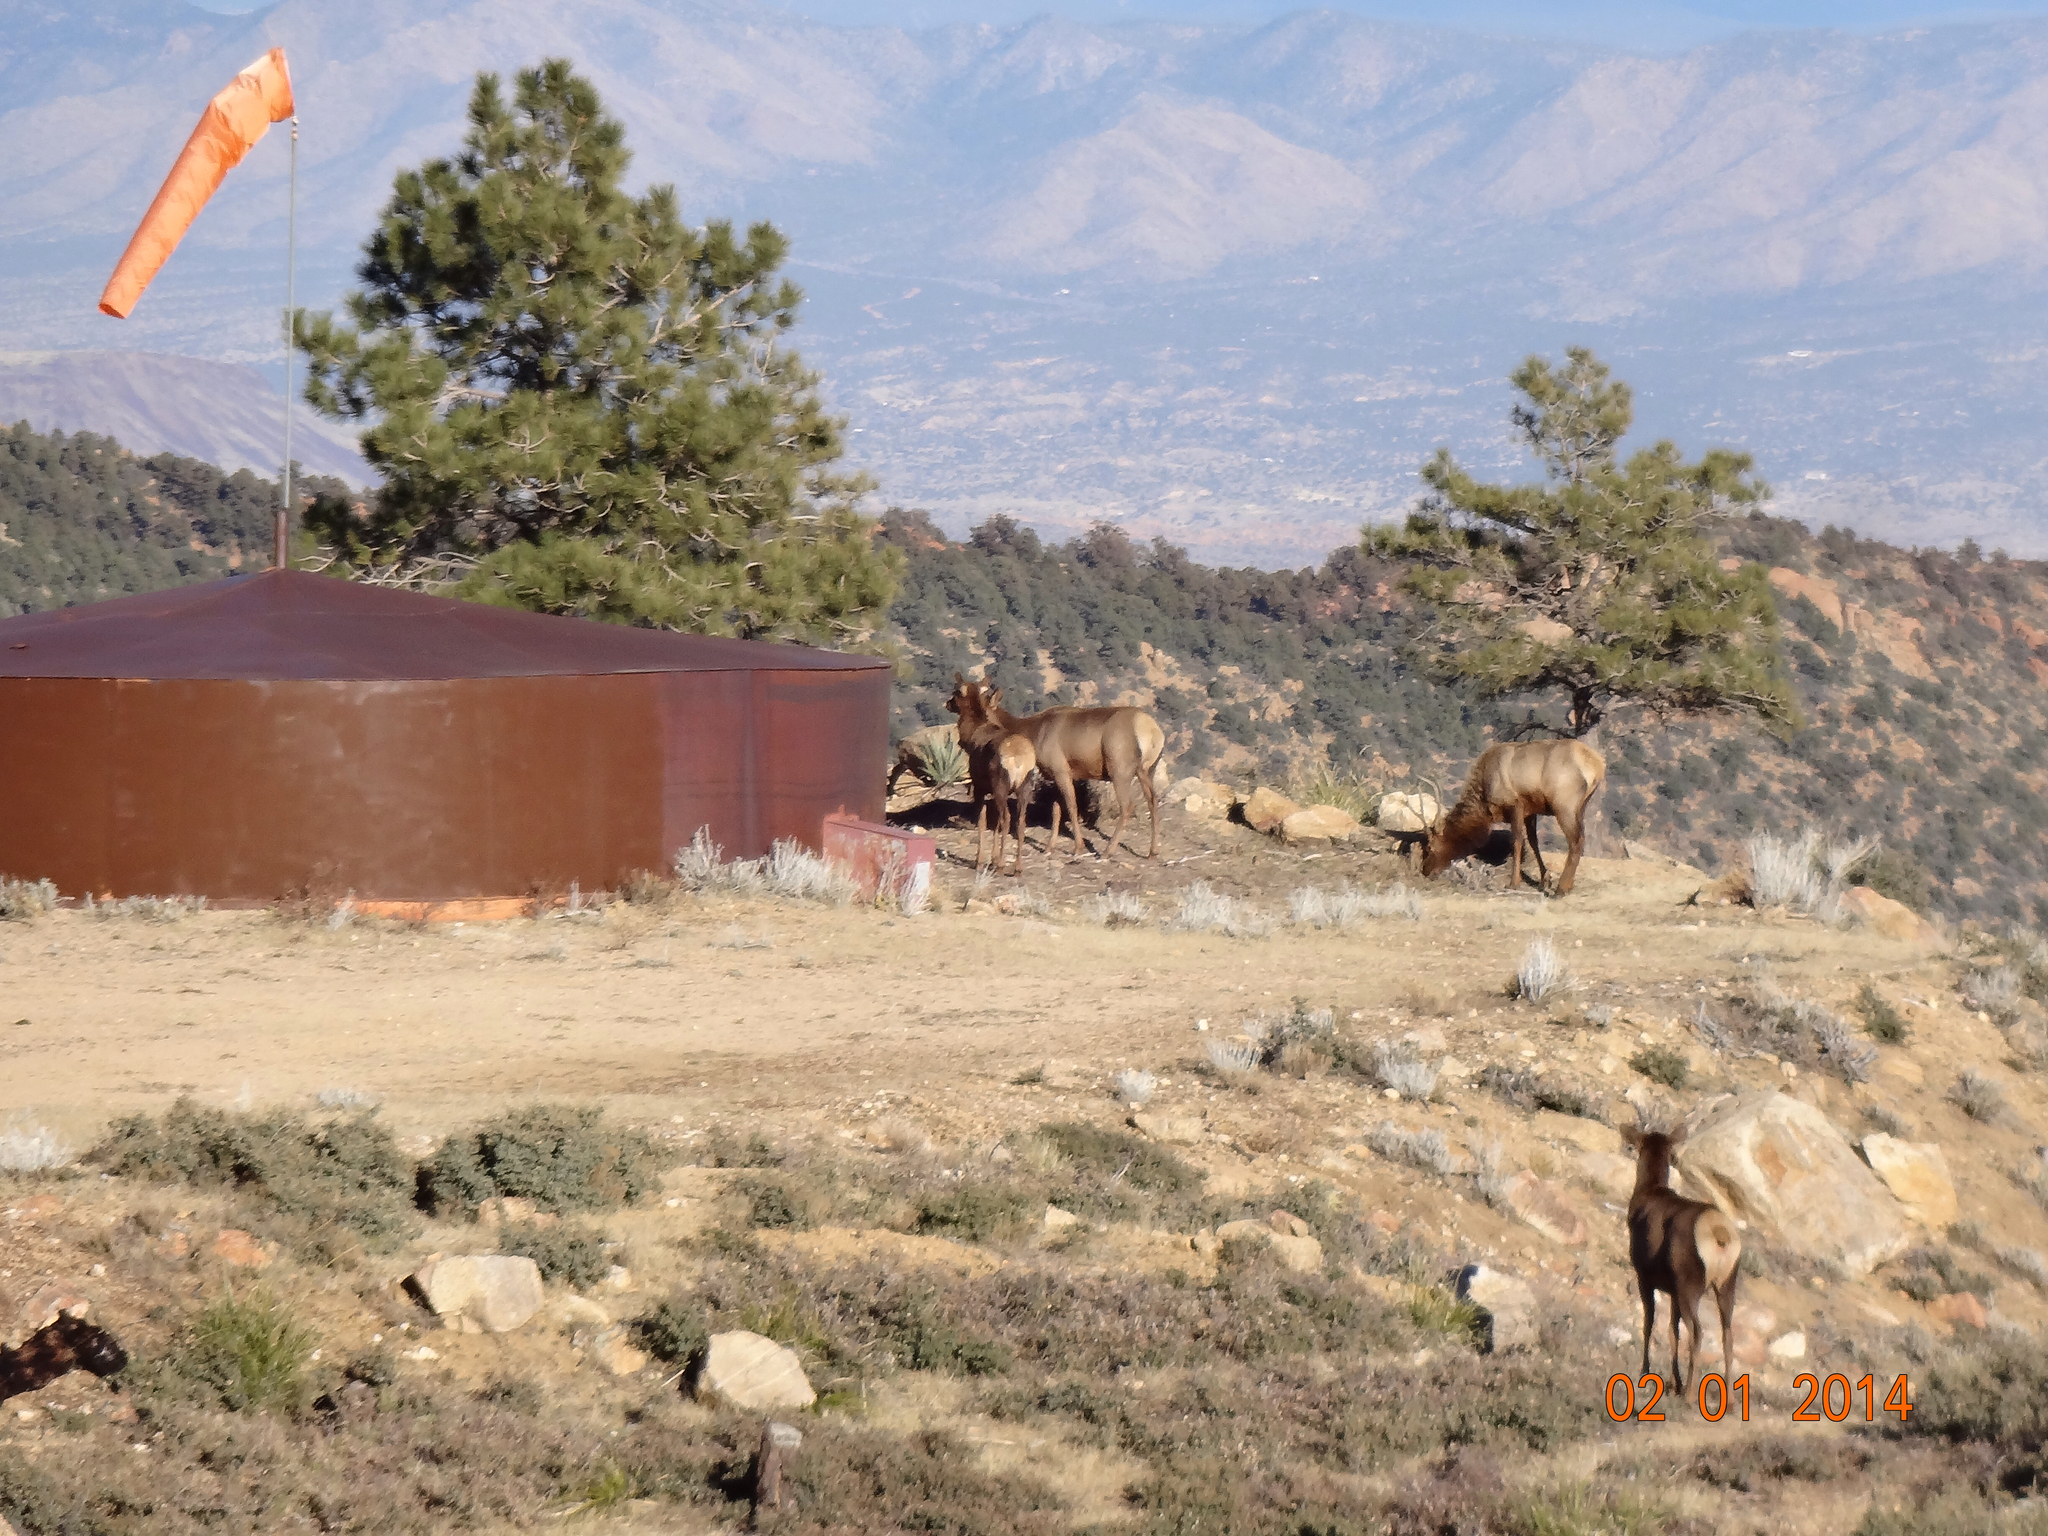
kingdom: Animalia
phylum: Chordata
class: Mammalia
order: Artiodactyla
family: Cervidae
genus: Cervus
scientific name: Cervus elaphus
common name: Red deer
